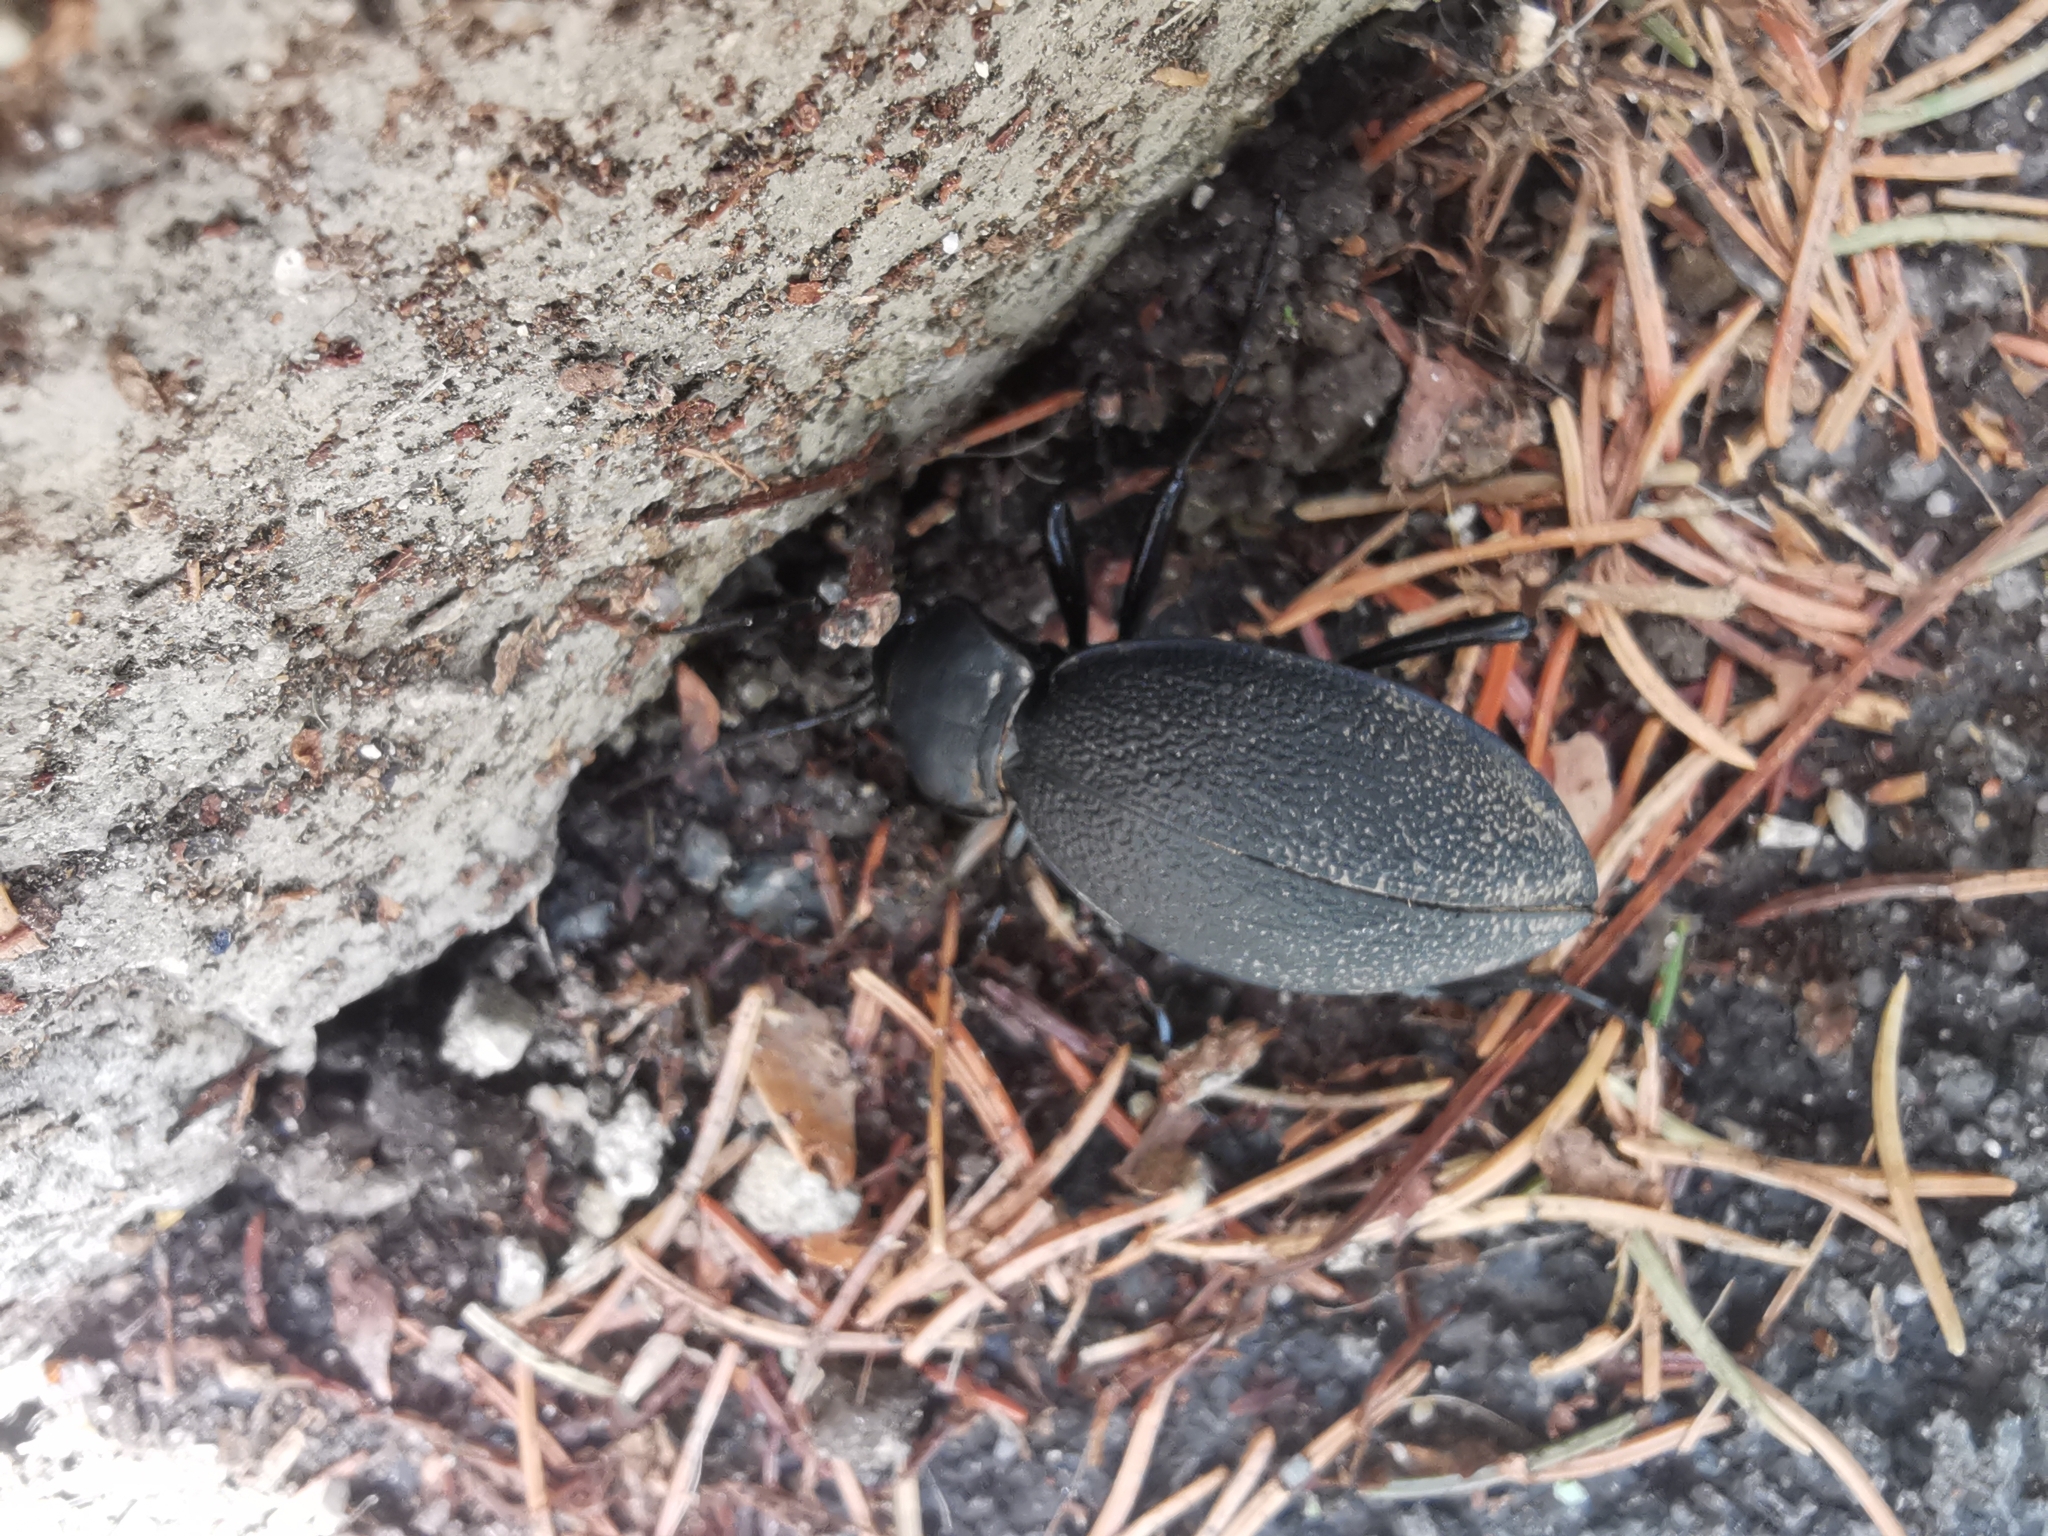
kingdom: Animalia
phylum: Arthropoda
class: Insecta
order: Coleoptera
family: Carabidae
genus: Carabus
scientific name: Carabus coriaceus
